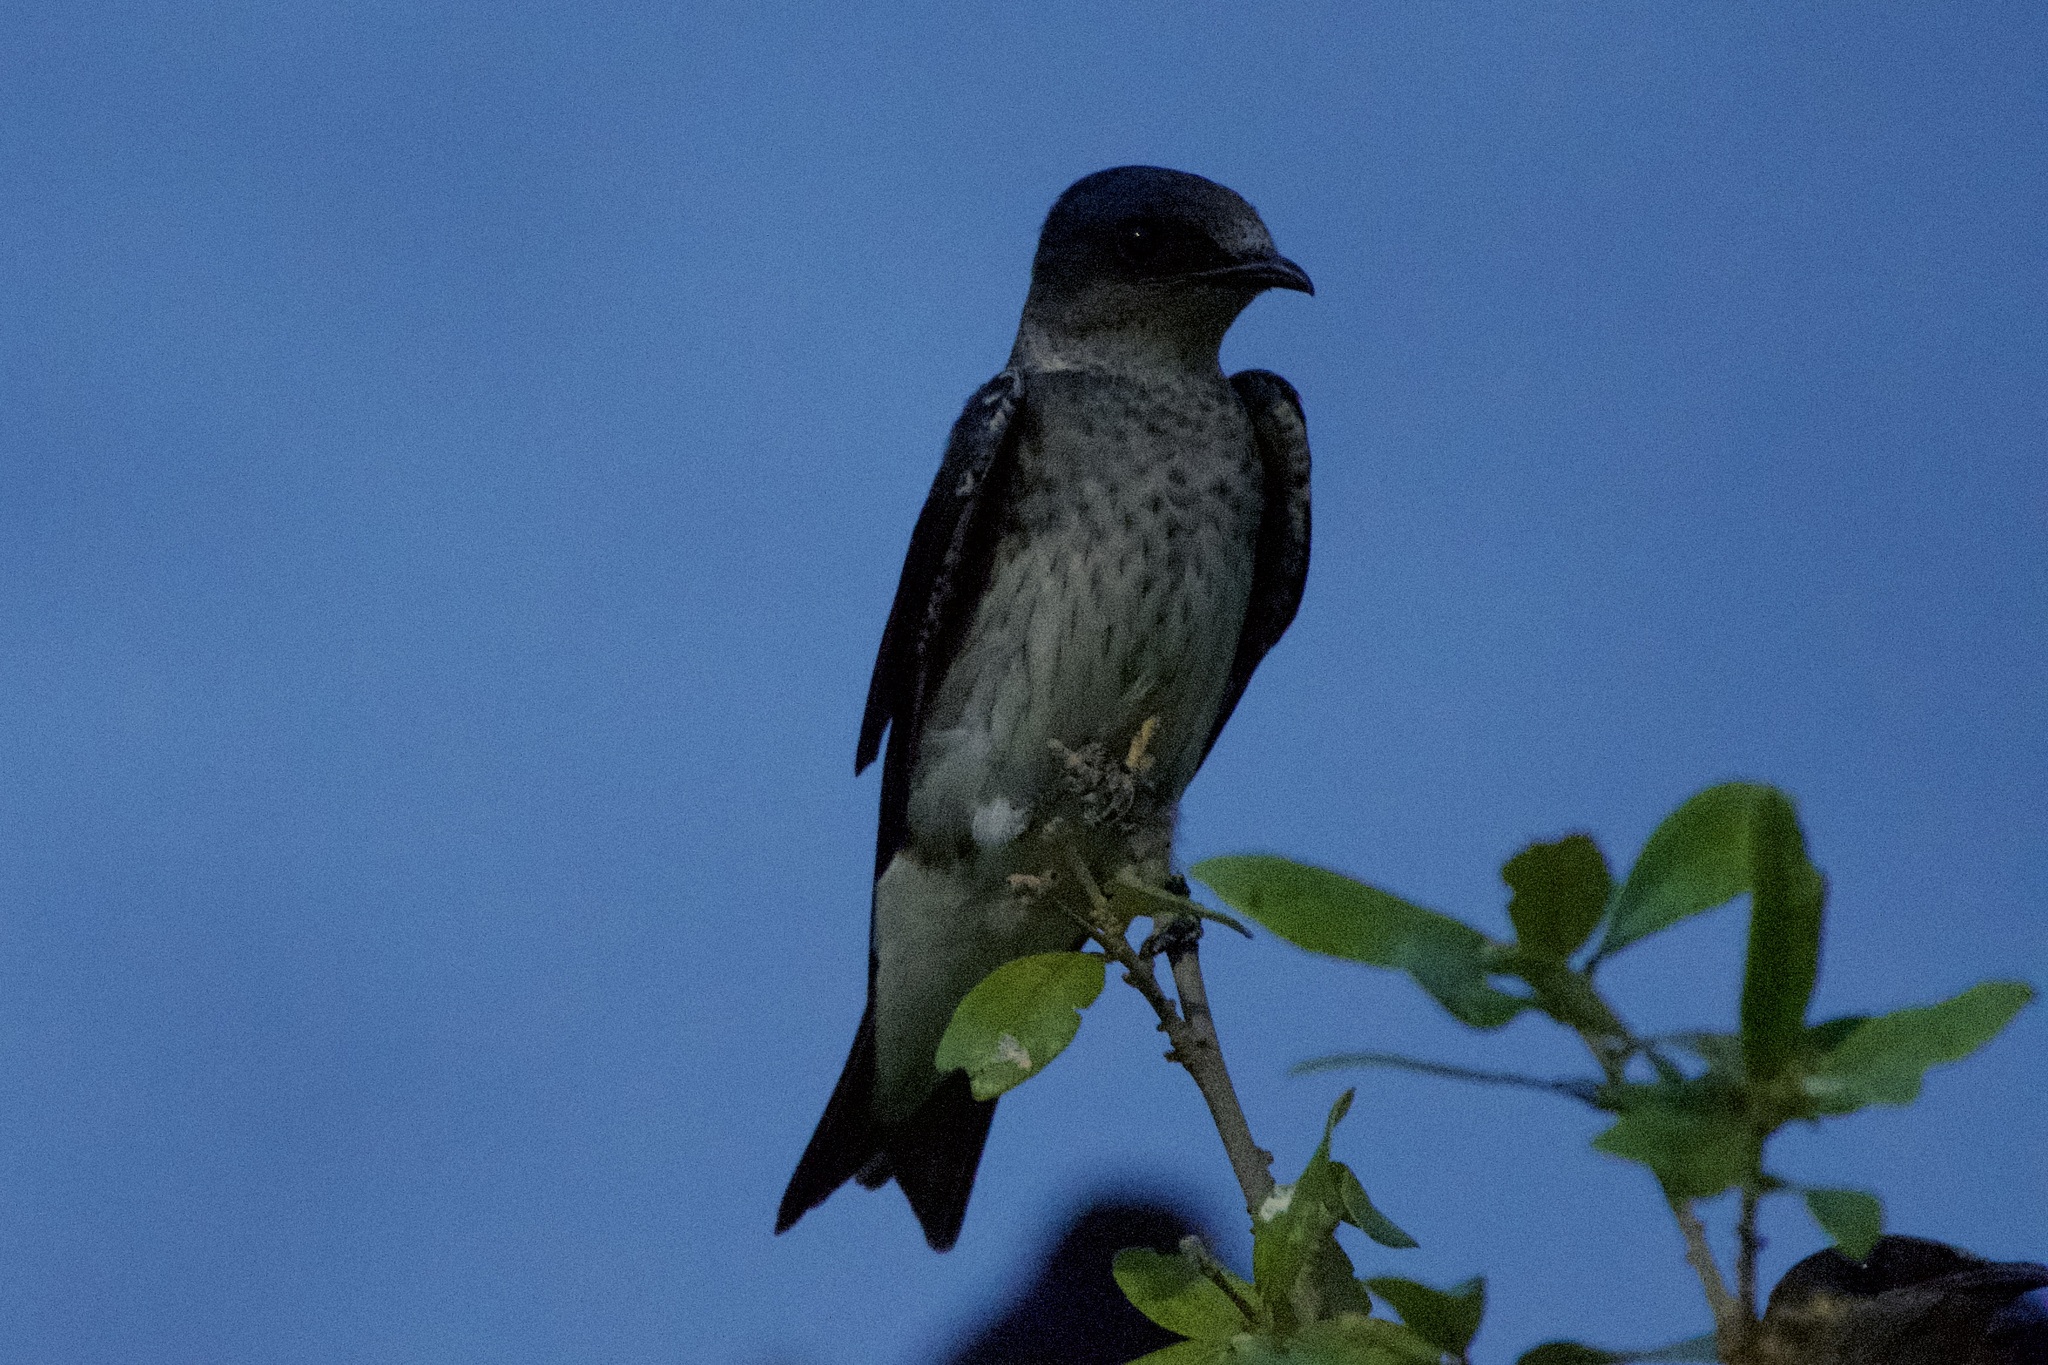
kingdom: Animalia
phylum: Chordata
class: Aves
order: Passeriformes
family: Hirundinidae
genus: Progne
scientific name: Progne subis
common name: Purple martin
